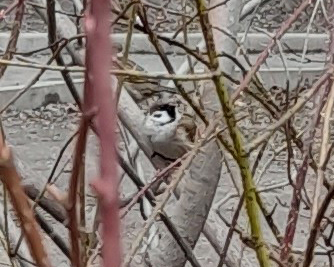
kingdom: Animalia
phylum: Chordata
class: Aves
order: Passeriformes
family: Passeridae
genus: Passer
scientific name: Passer montanus
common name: Eurasian tree sparrow
